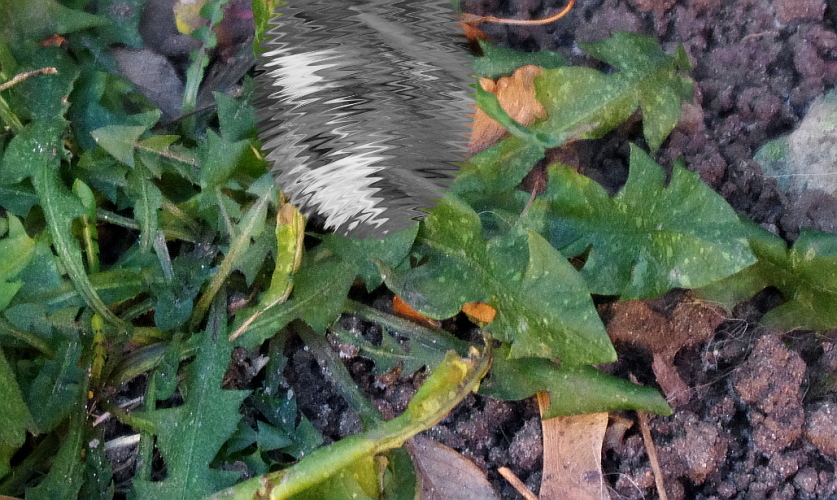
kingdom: Plantae
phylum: Tracheophyta
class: Magnoliopsida
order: Asterales
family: Asteraceae
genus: Taraxacum
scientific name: Taraxacum officinale
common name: Common dandelion
